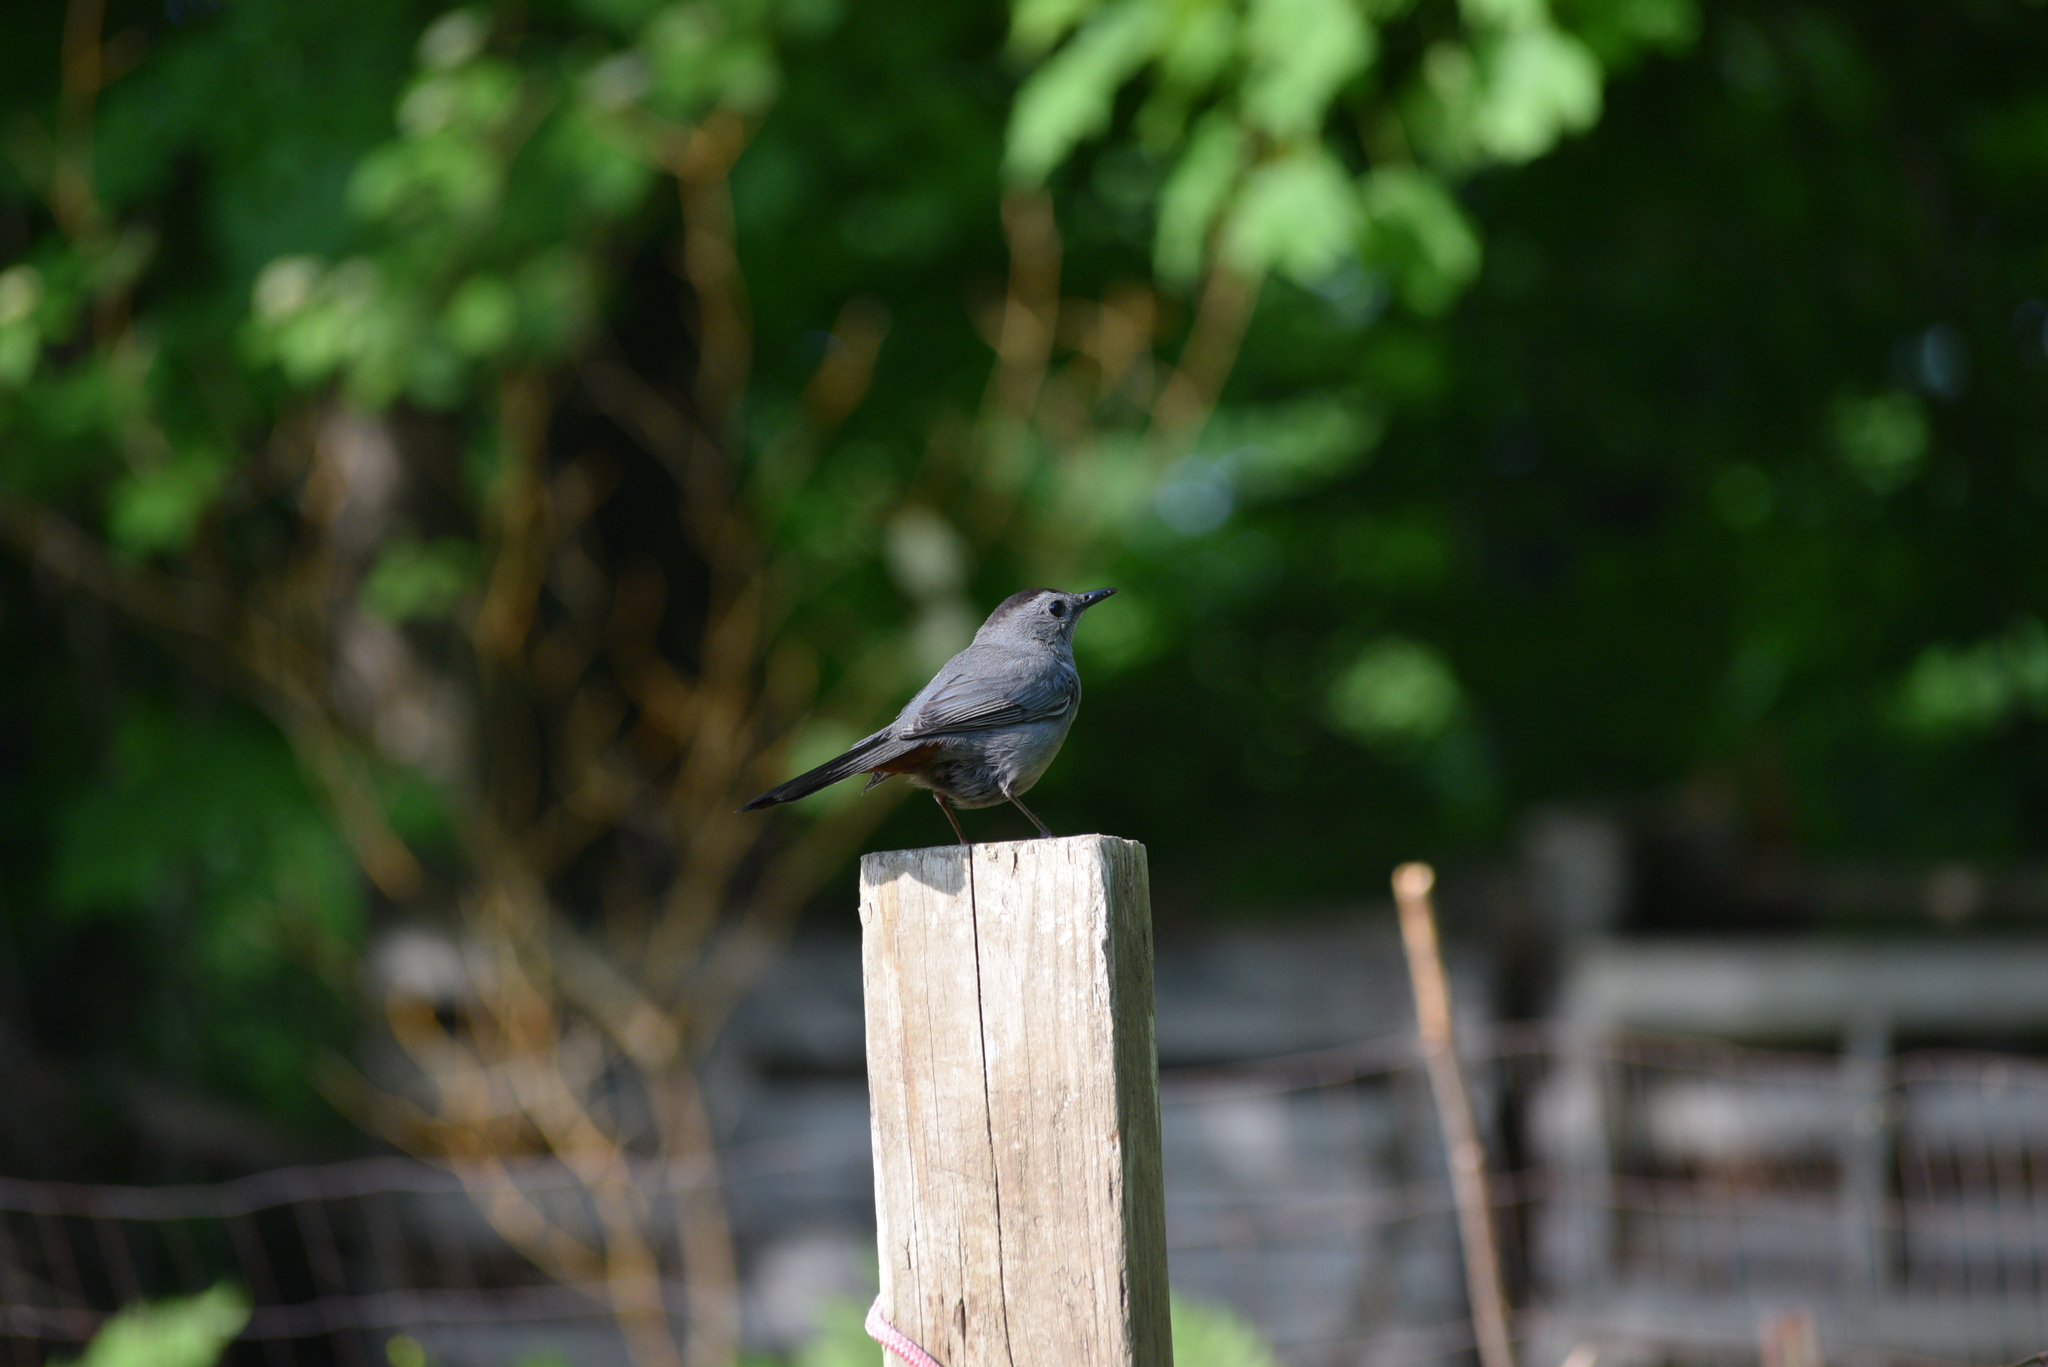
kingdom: Animalia
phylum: Chordata
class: Aves
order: Passeriformes
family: Mimidae
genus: Dumetella
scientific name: Dumetella carolinensis
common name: Gray catbird
